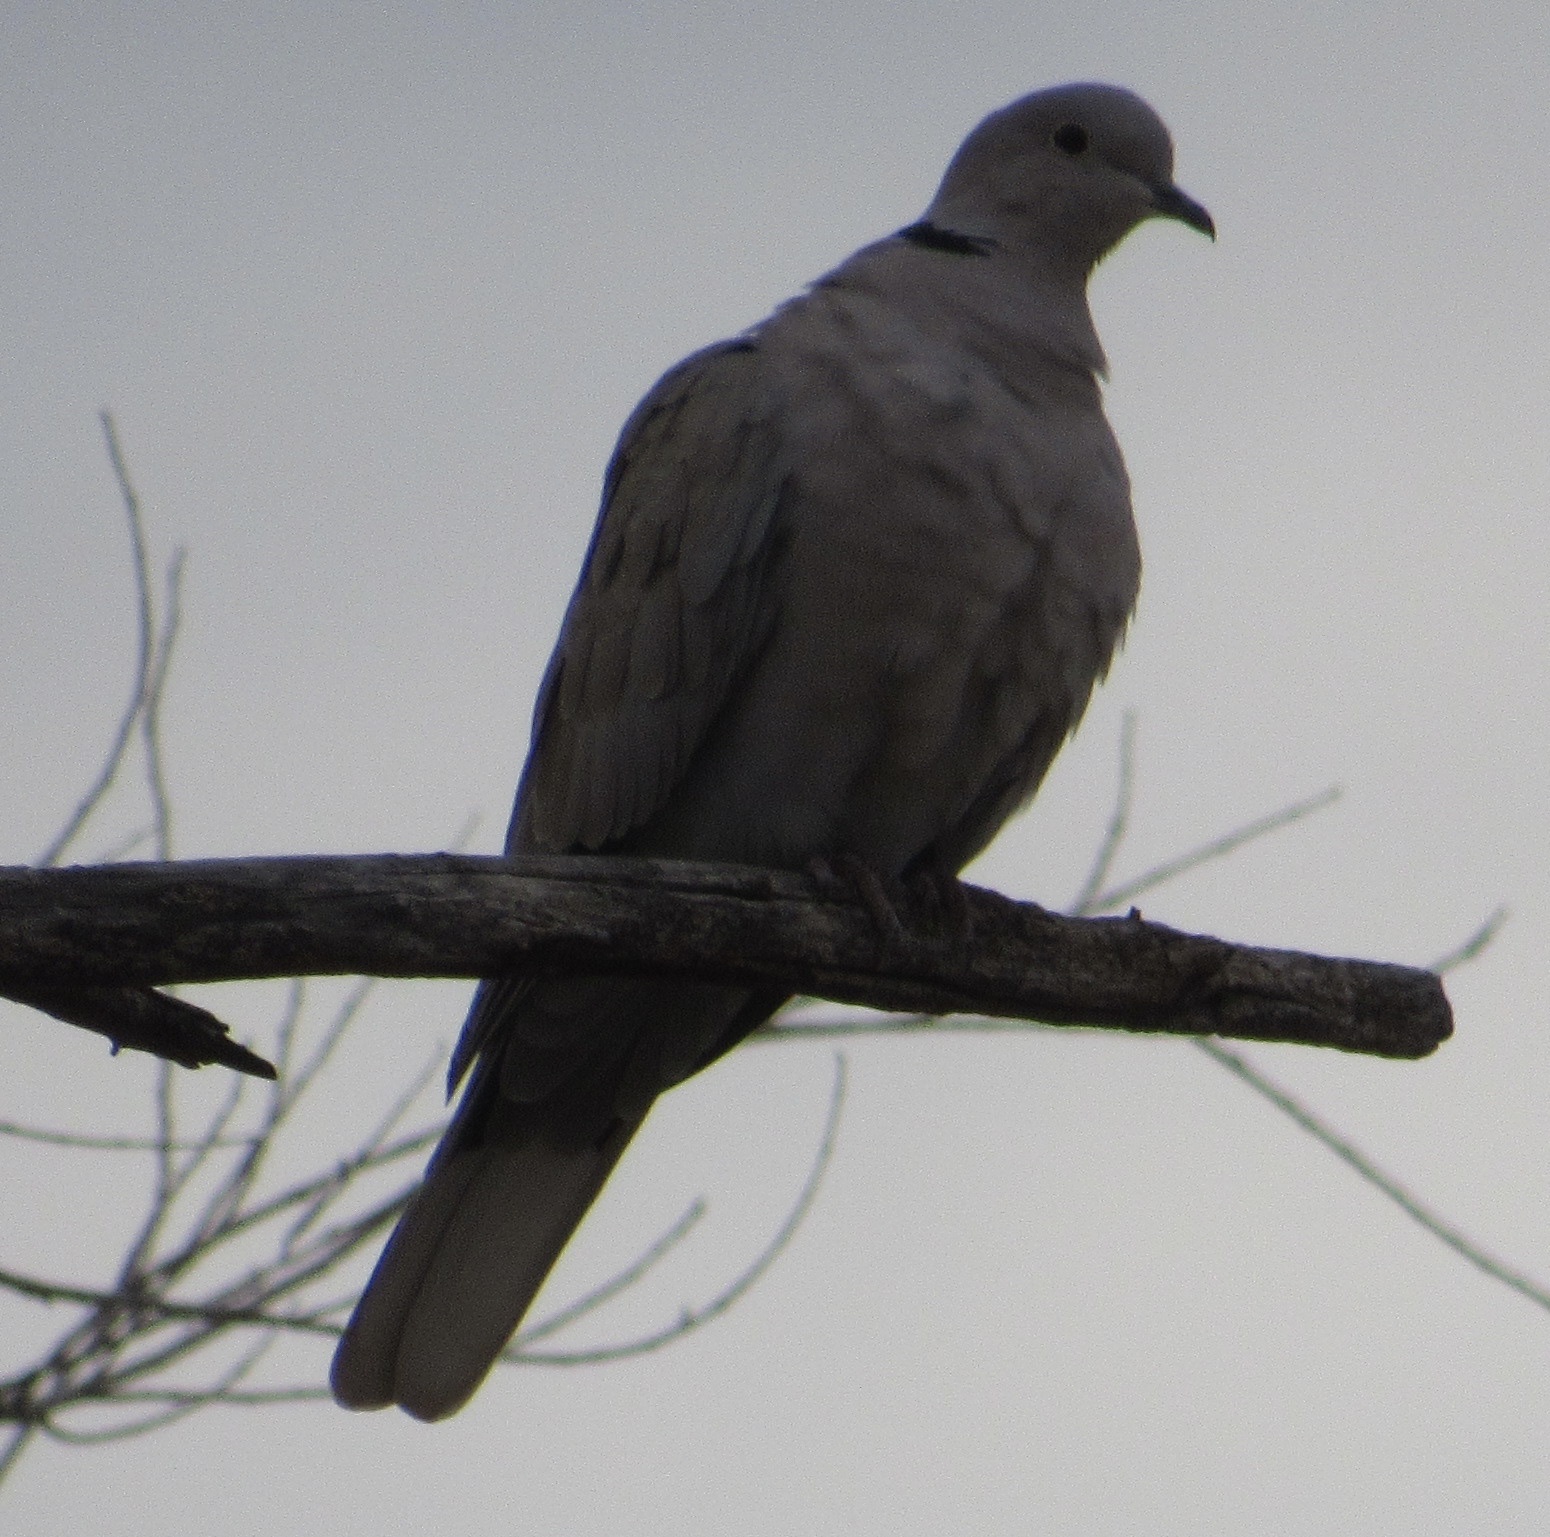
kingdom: Animalia
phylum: Chordata
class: Aves
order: Columbiformes
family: Columbidae
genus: Streptopelia
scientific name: Streptopelia decaocto
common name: Eurasian collared dove
